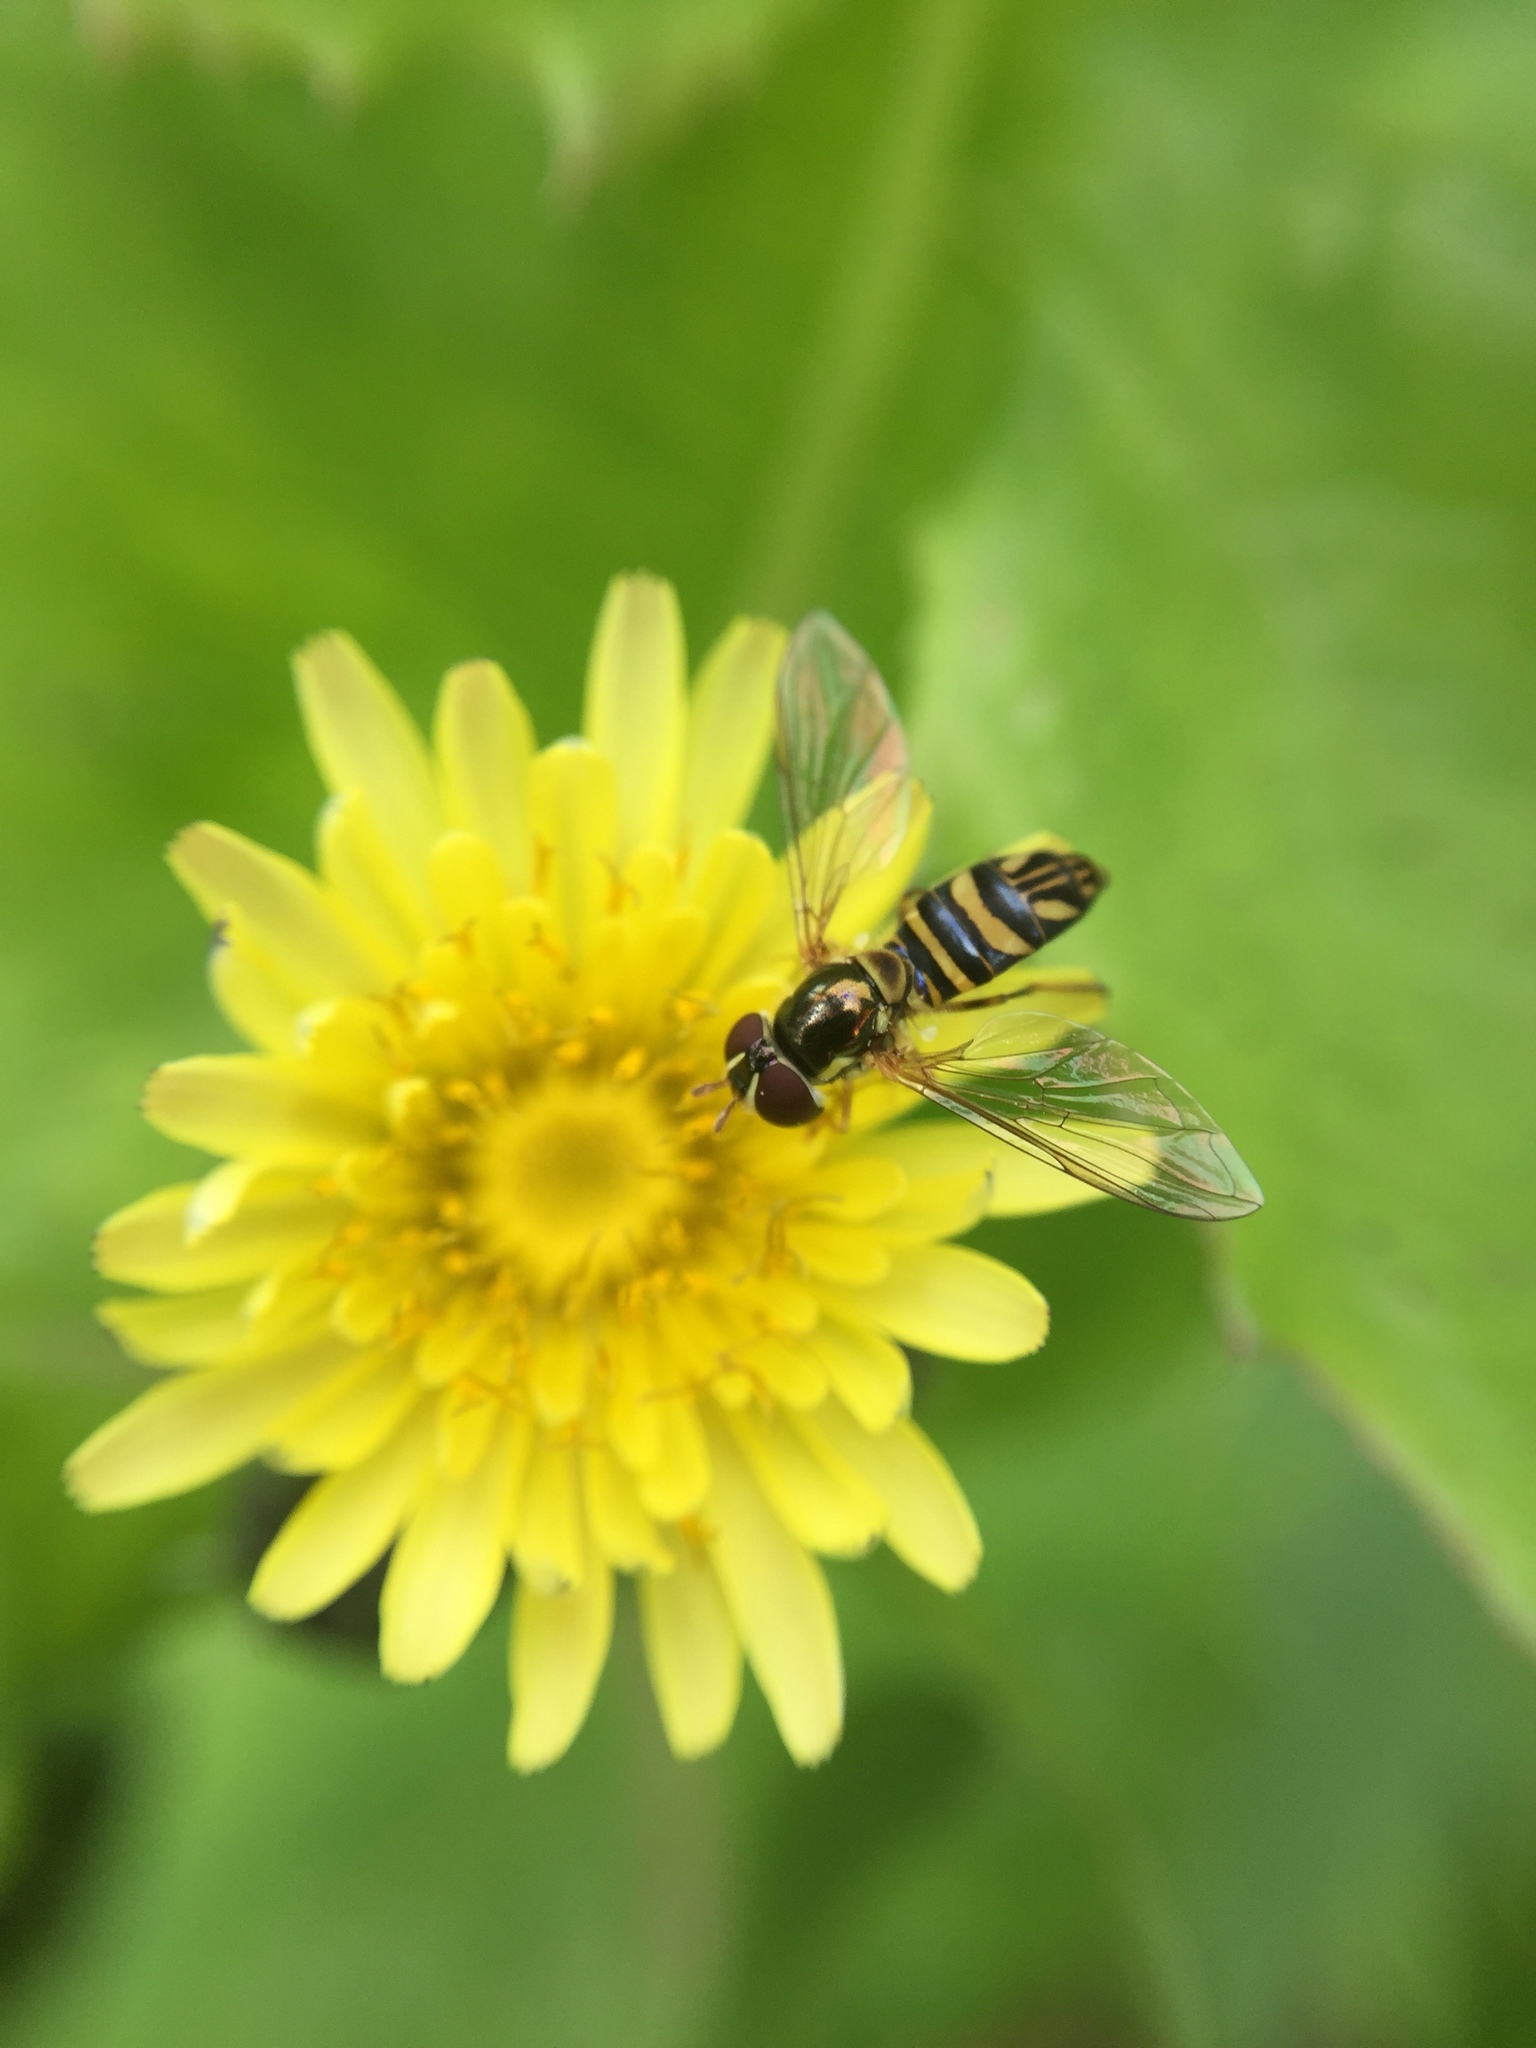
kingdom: Animalia
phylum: Arthropoda
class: Insecta
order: Diptera
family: Syrphidae
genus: Allograpta
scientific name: Allograpta obliqua
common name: Common oblique syrphid
